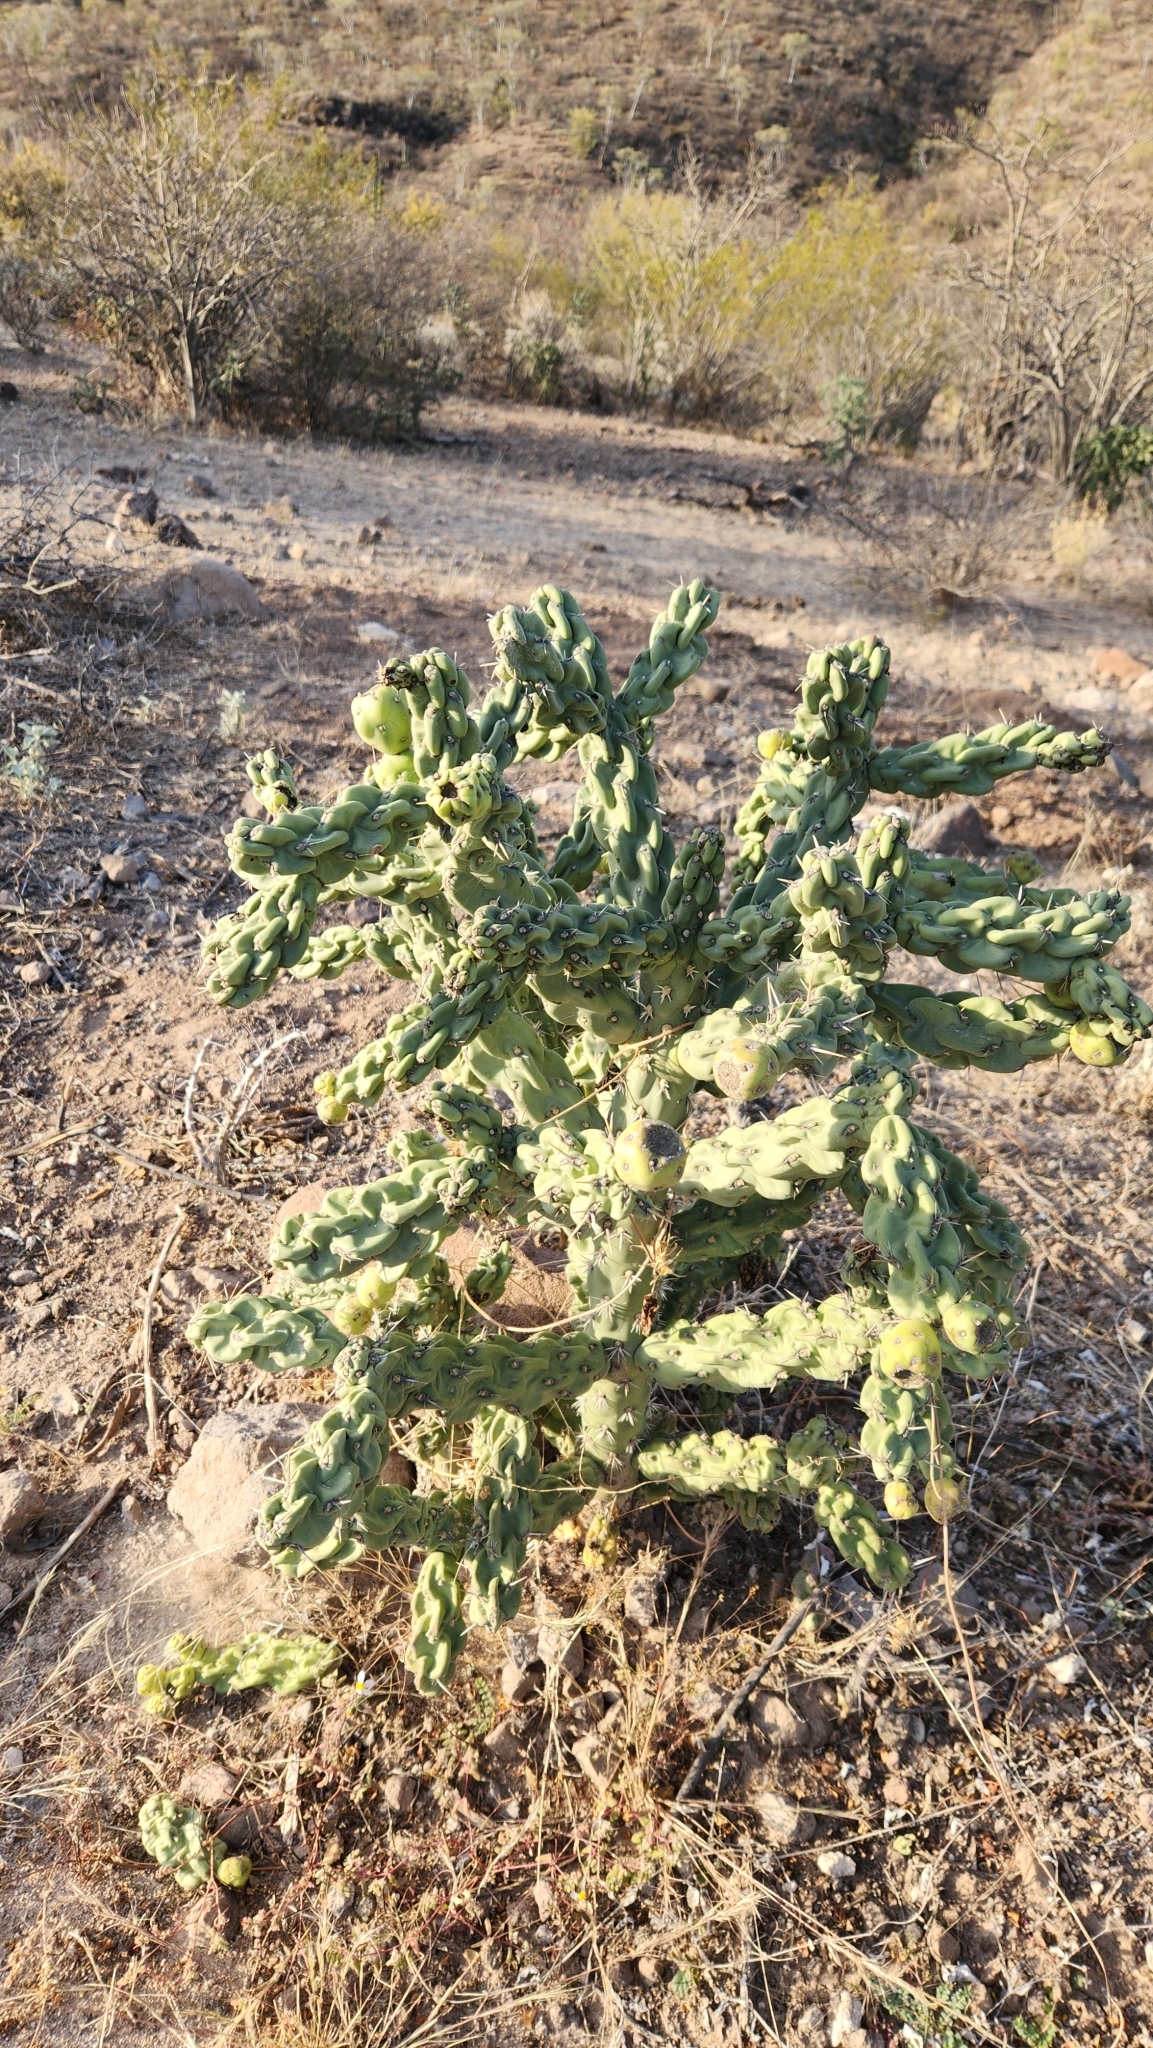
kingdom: Plantae
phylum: Tracheophyta
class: Magnoliopsida
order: Caryophyllales
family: Cactaceae
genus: Cylindropuntia
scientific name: Cylindropuntia cholla
